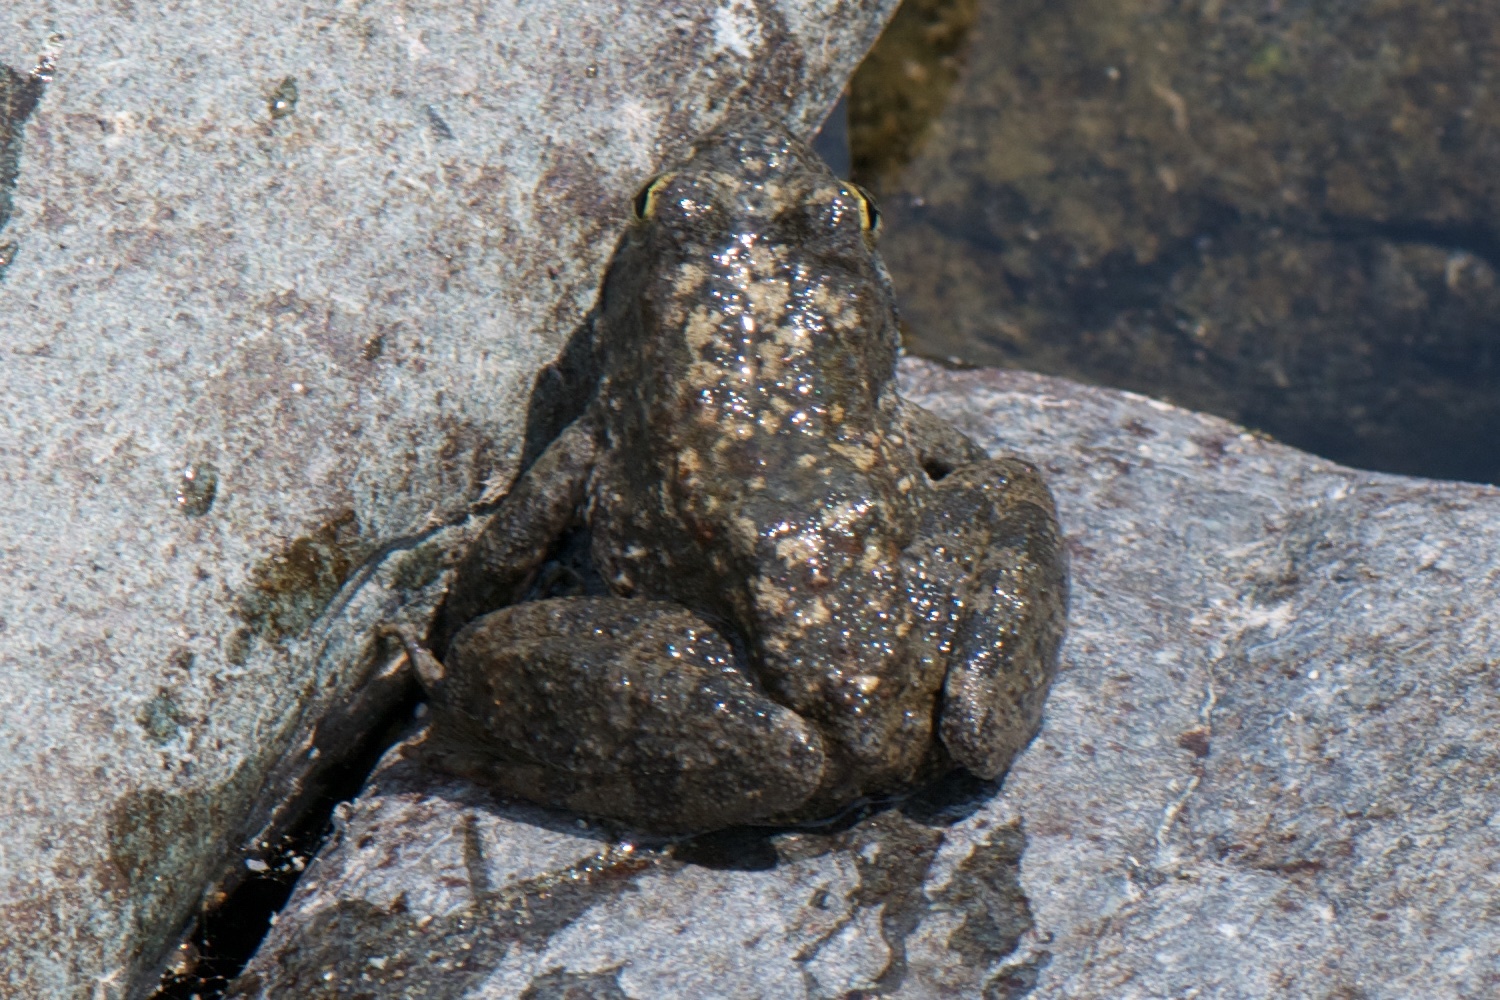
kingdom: Animalia
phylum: Chordata
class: Amphibia
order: Anura
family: Ranidae
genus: Rana
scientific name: Rana boylii
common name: Foothill yellow-legged frog
